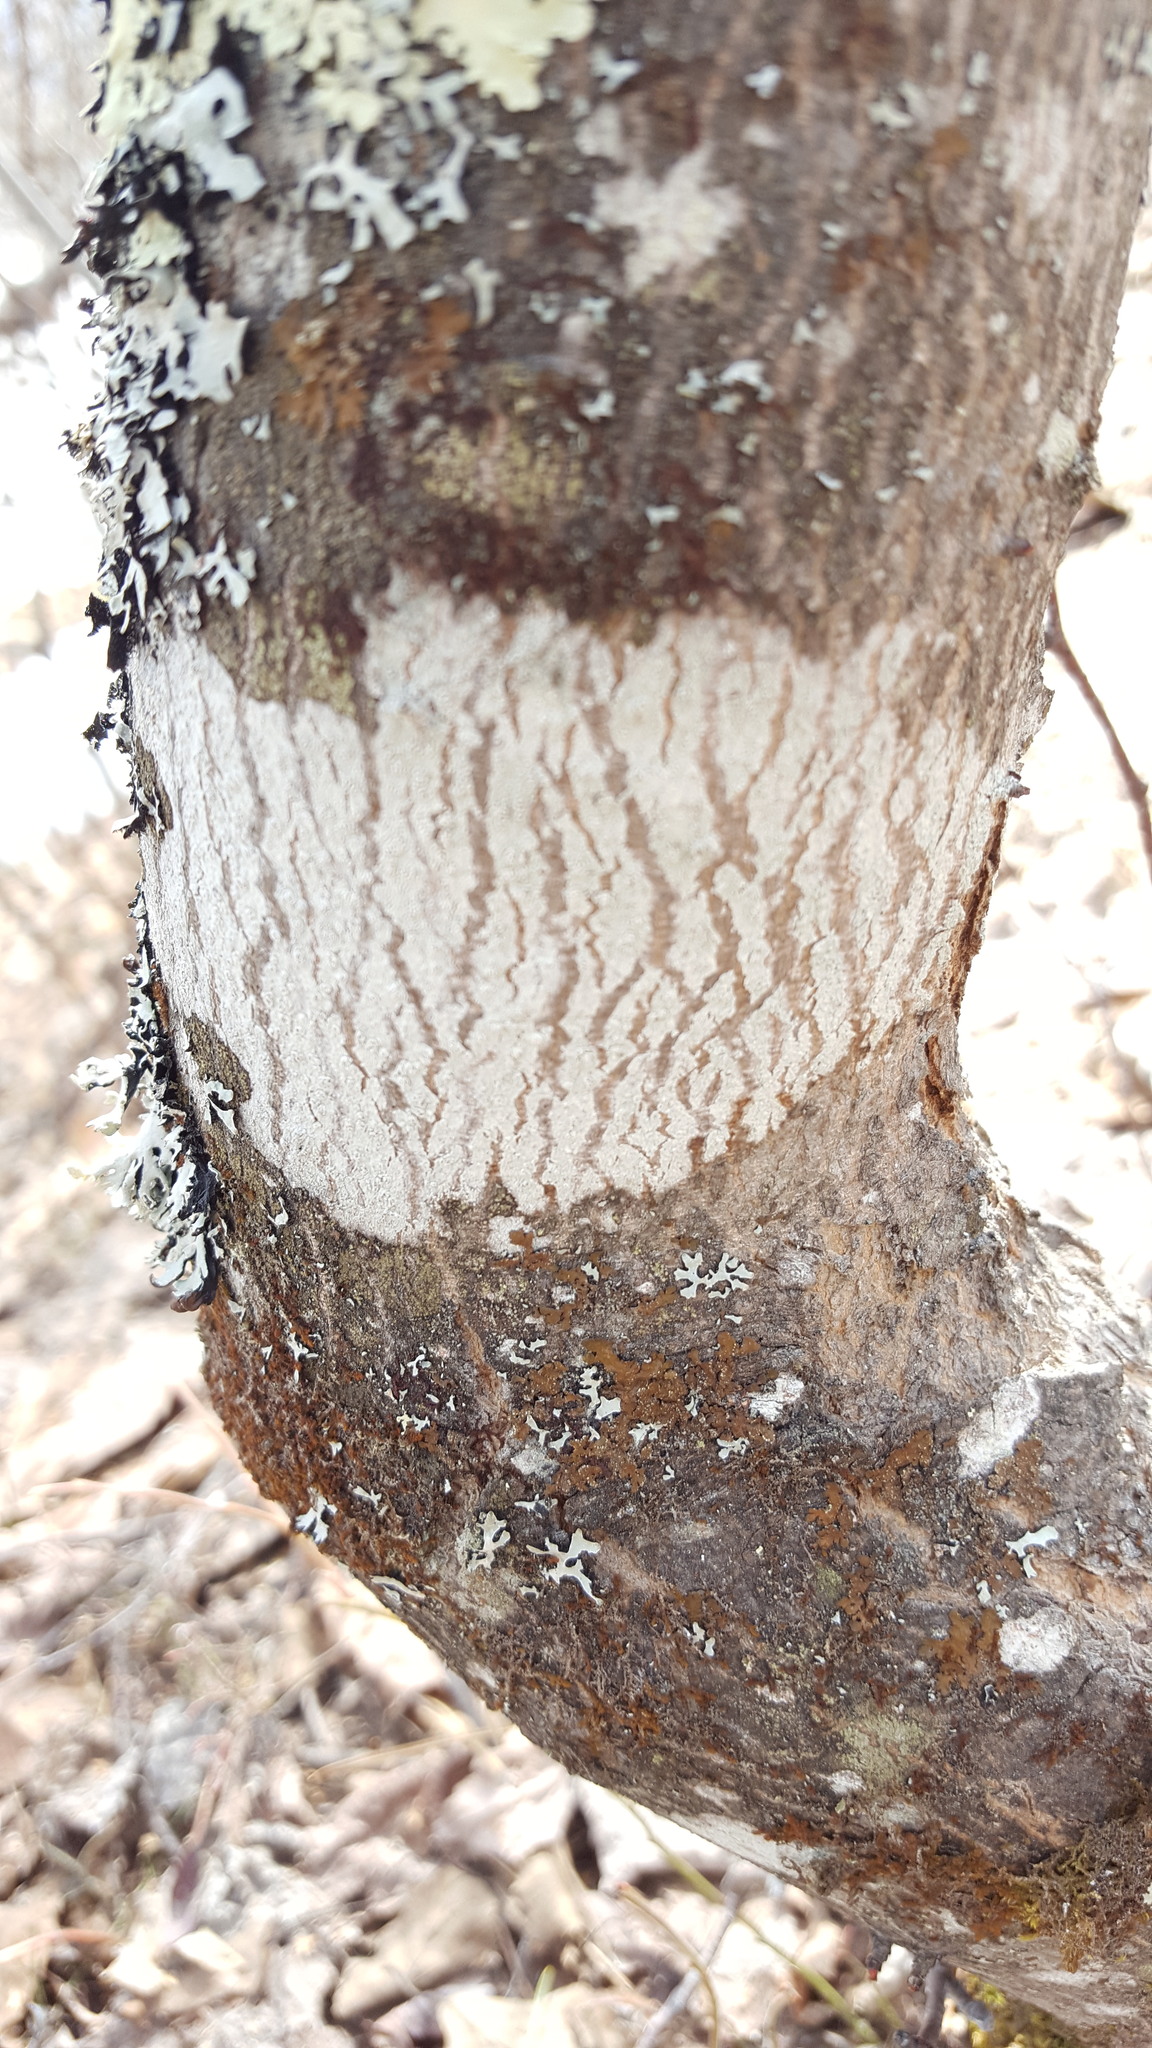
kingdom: Fungi
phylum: Ascomycota
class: Lecanoromycetes
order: Ostropales
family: Phlyctidaceae
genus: Phlyctis
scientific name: Phlyctis argena
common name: Whitewash lichen
